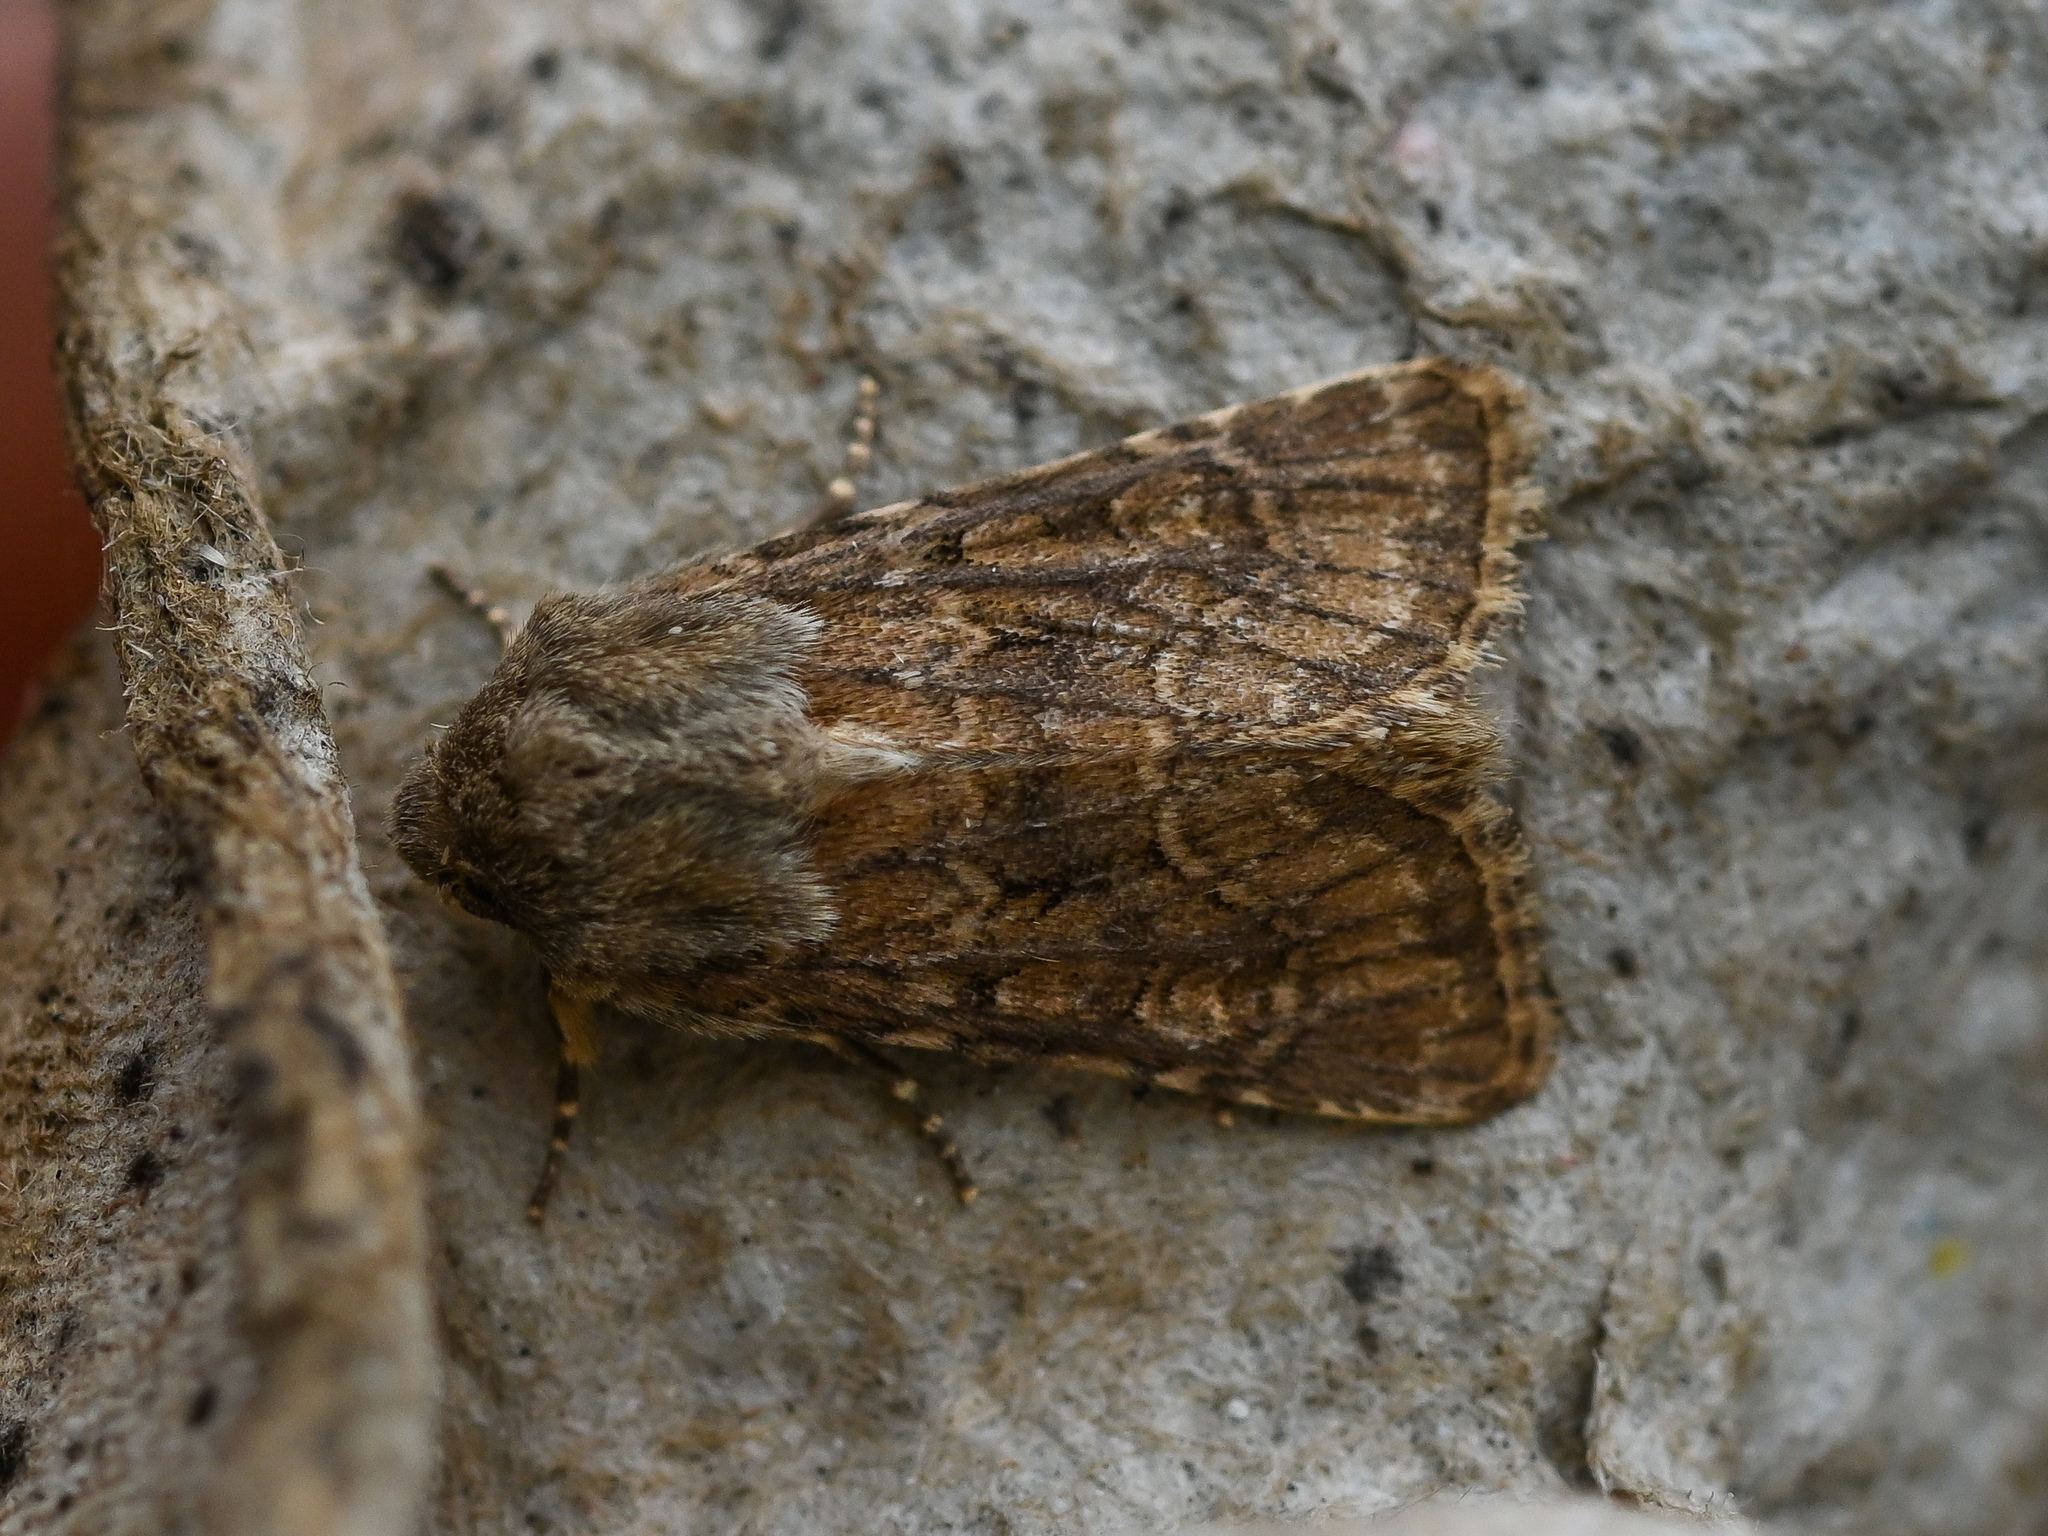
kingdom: Animalia
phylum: Arthropoda
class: Insecta
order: Lepidoptera
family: Noctuidae
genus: Luperina
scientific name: Luperina testacea
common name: Flounced rustic
